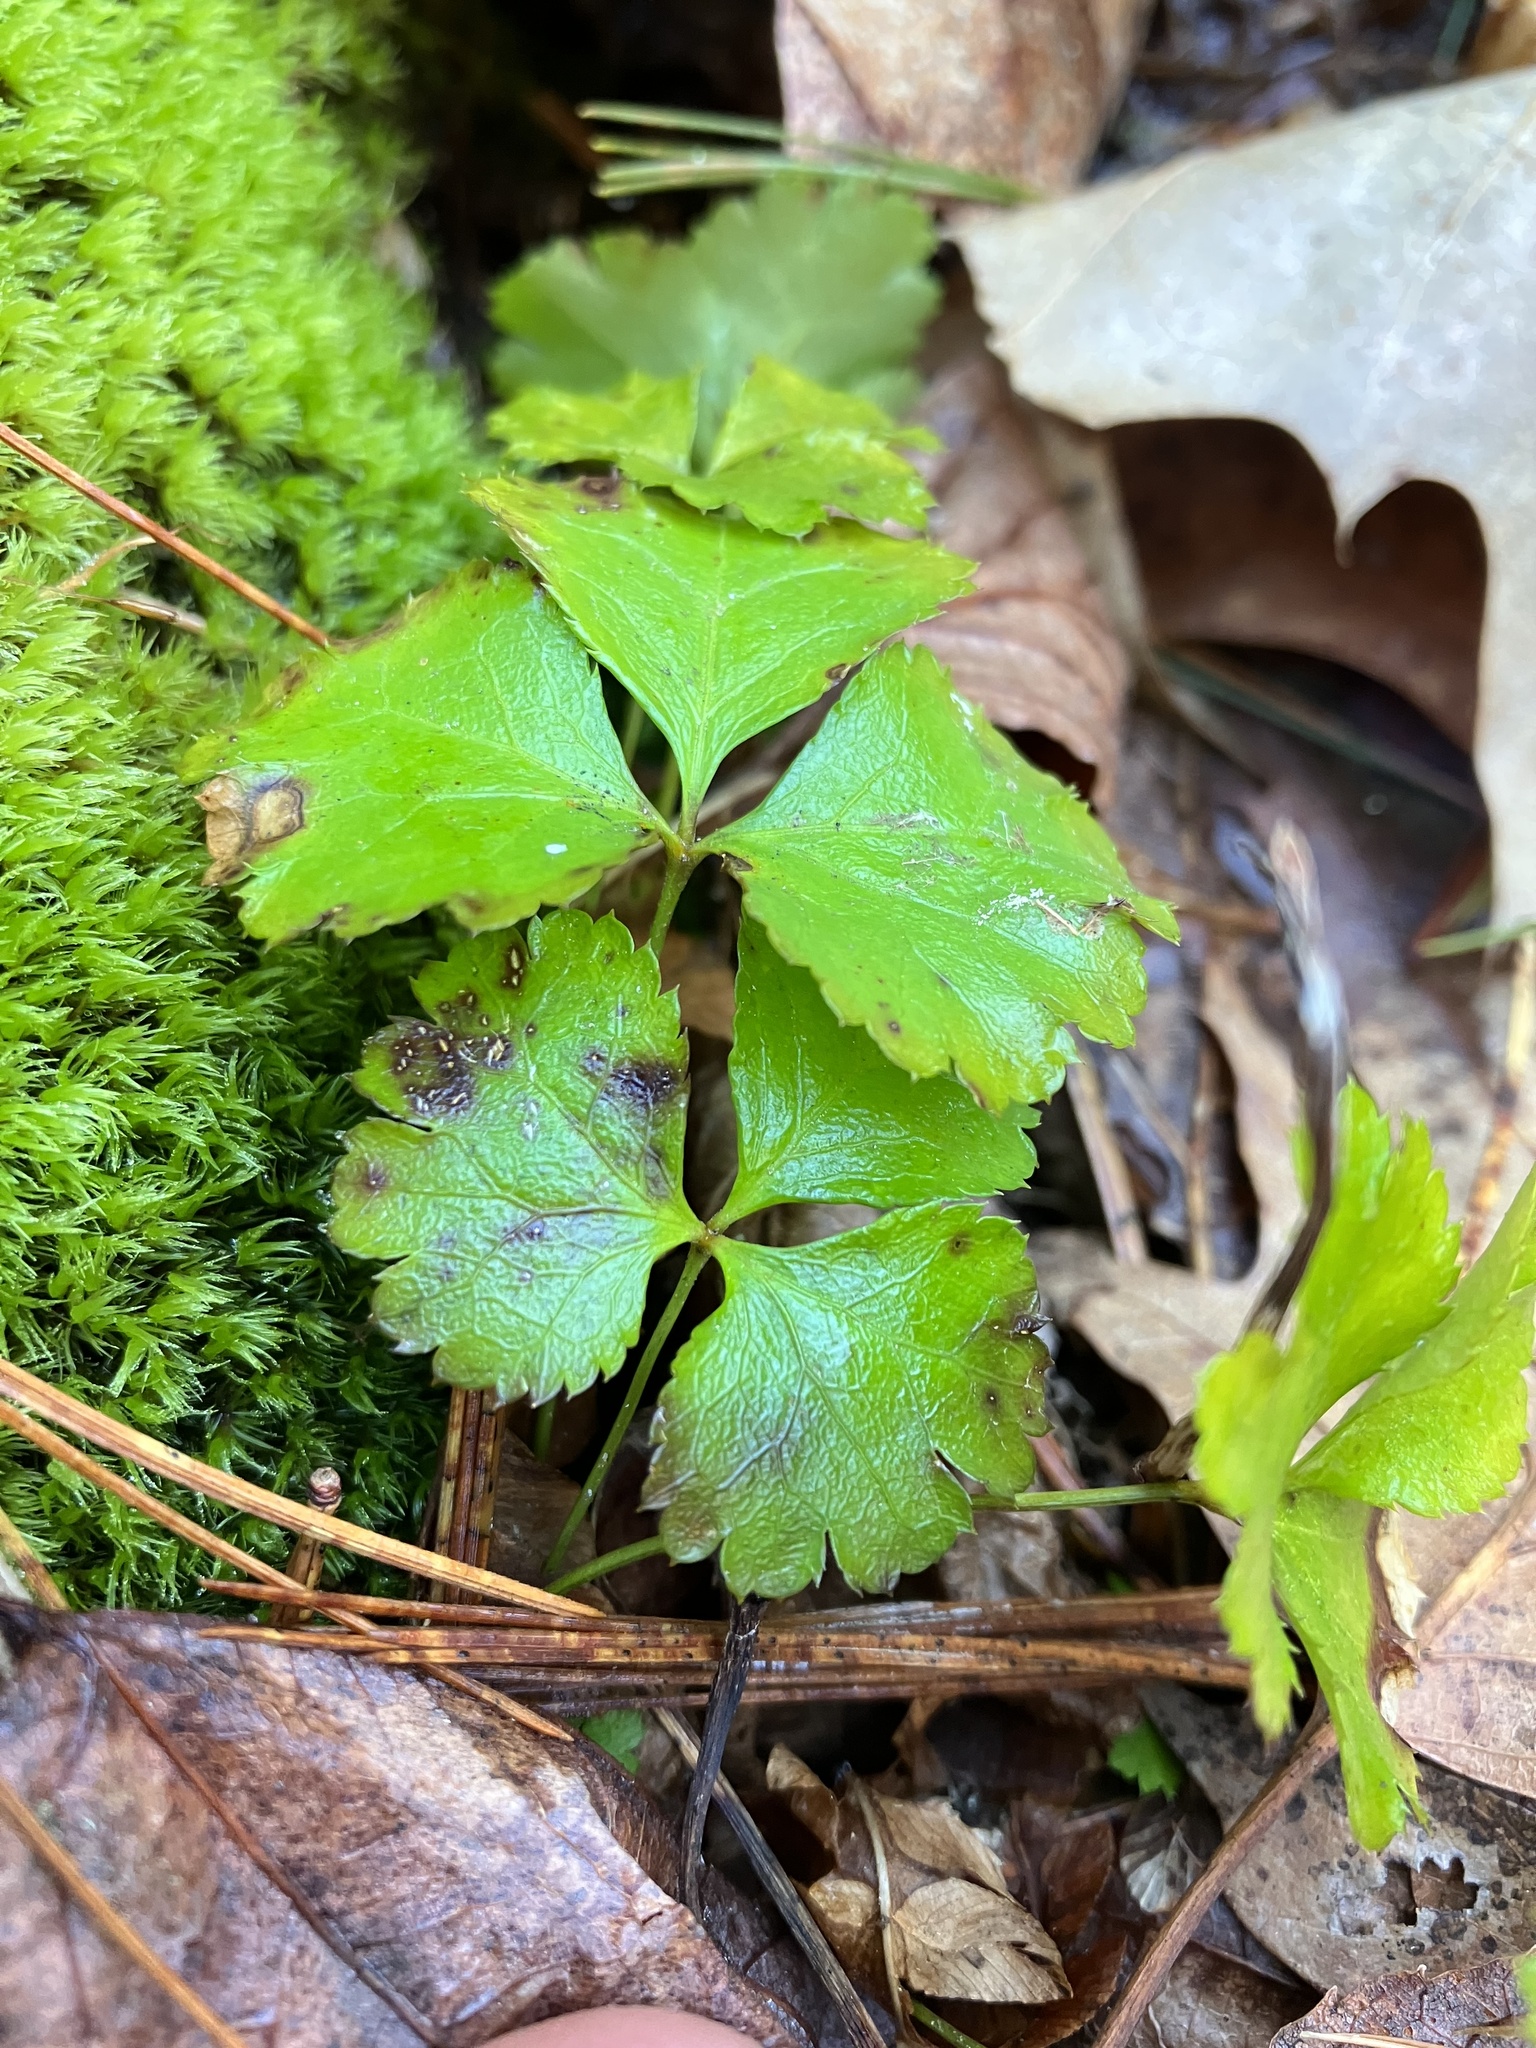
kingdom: Plantae
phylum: Tracheophyta
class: Magnoliopsida
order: Ranunculales
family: Ranunculaceae
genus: Coptis
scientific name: Coptis trifolia
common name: Canker-root
